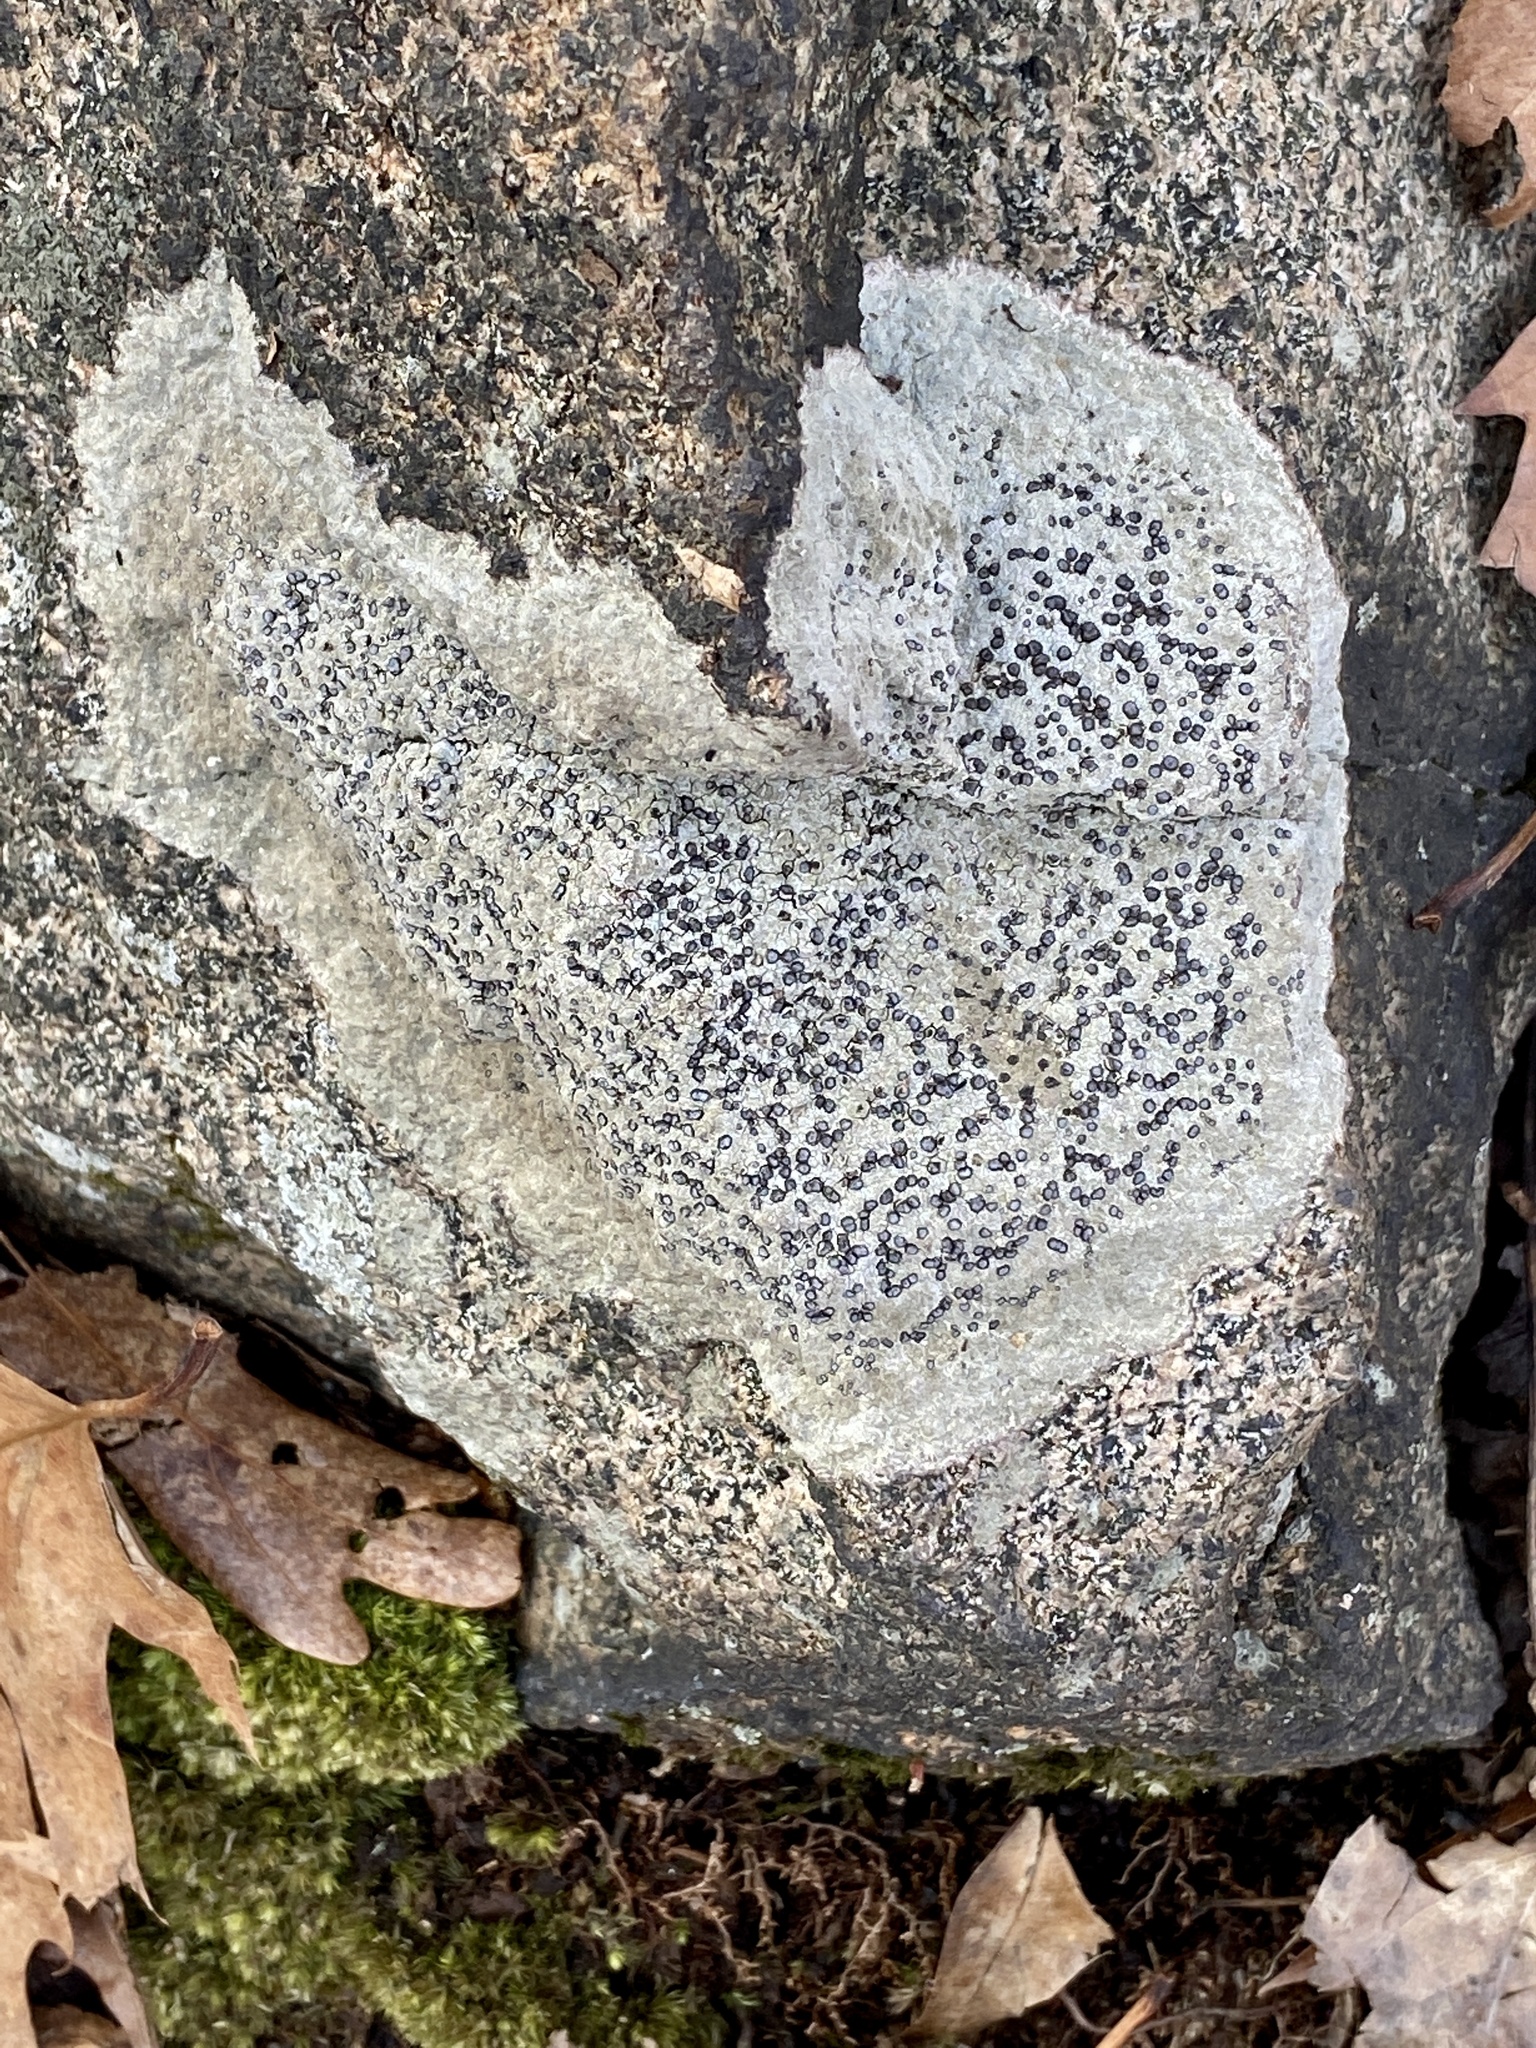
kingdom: Fungi
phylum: Ascomycota
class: Lecanoromycetes
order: Lecideales
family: Lecideaceae
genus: Porpidia
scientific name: Porpidia albocaerulescens
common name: Smokey-eyed boulder lichen
